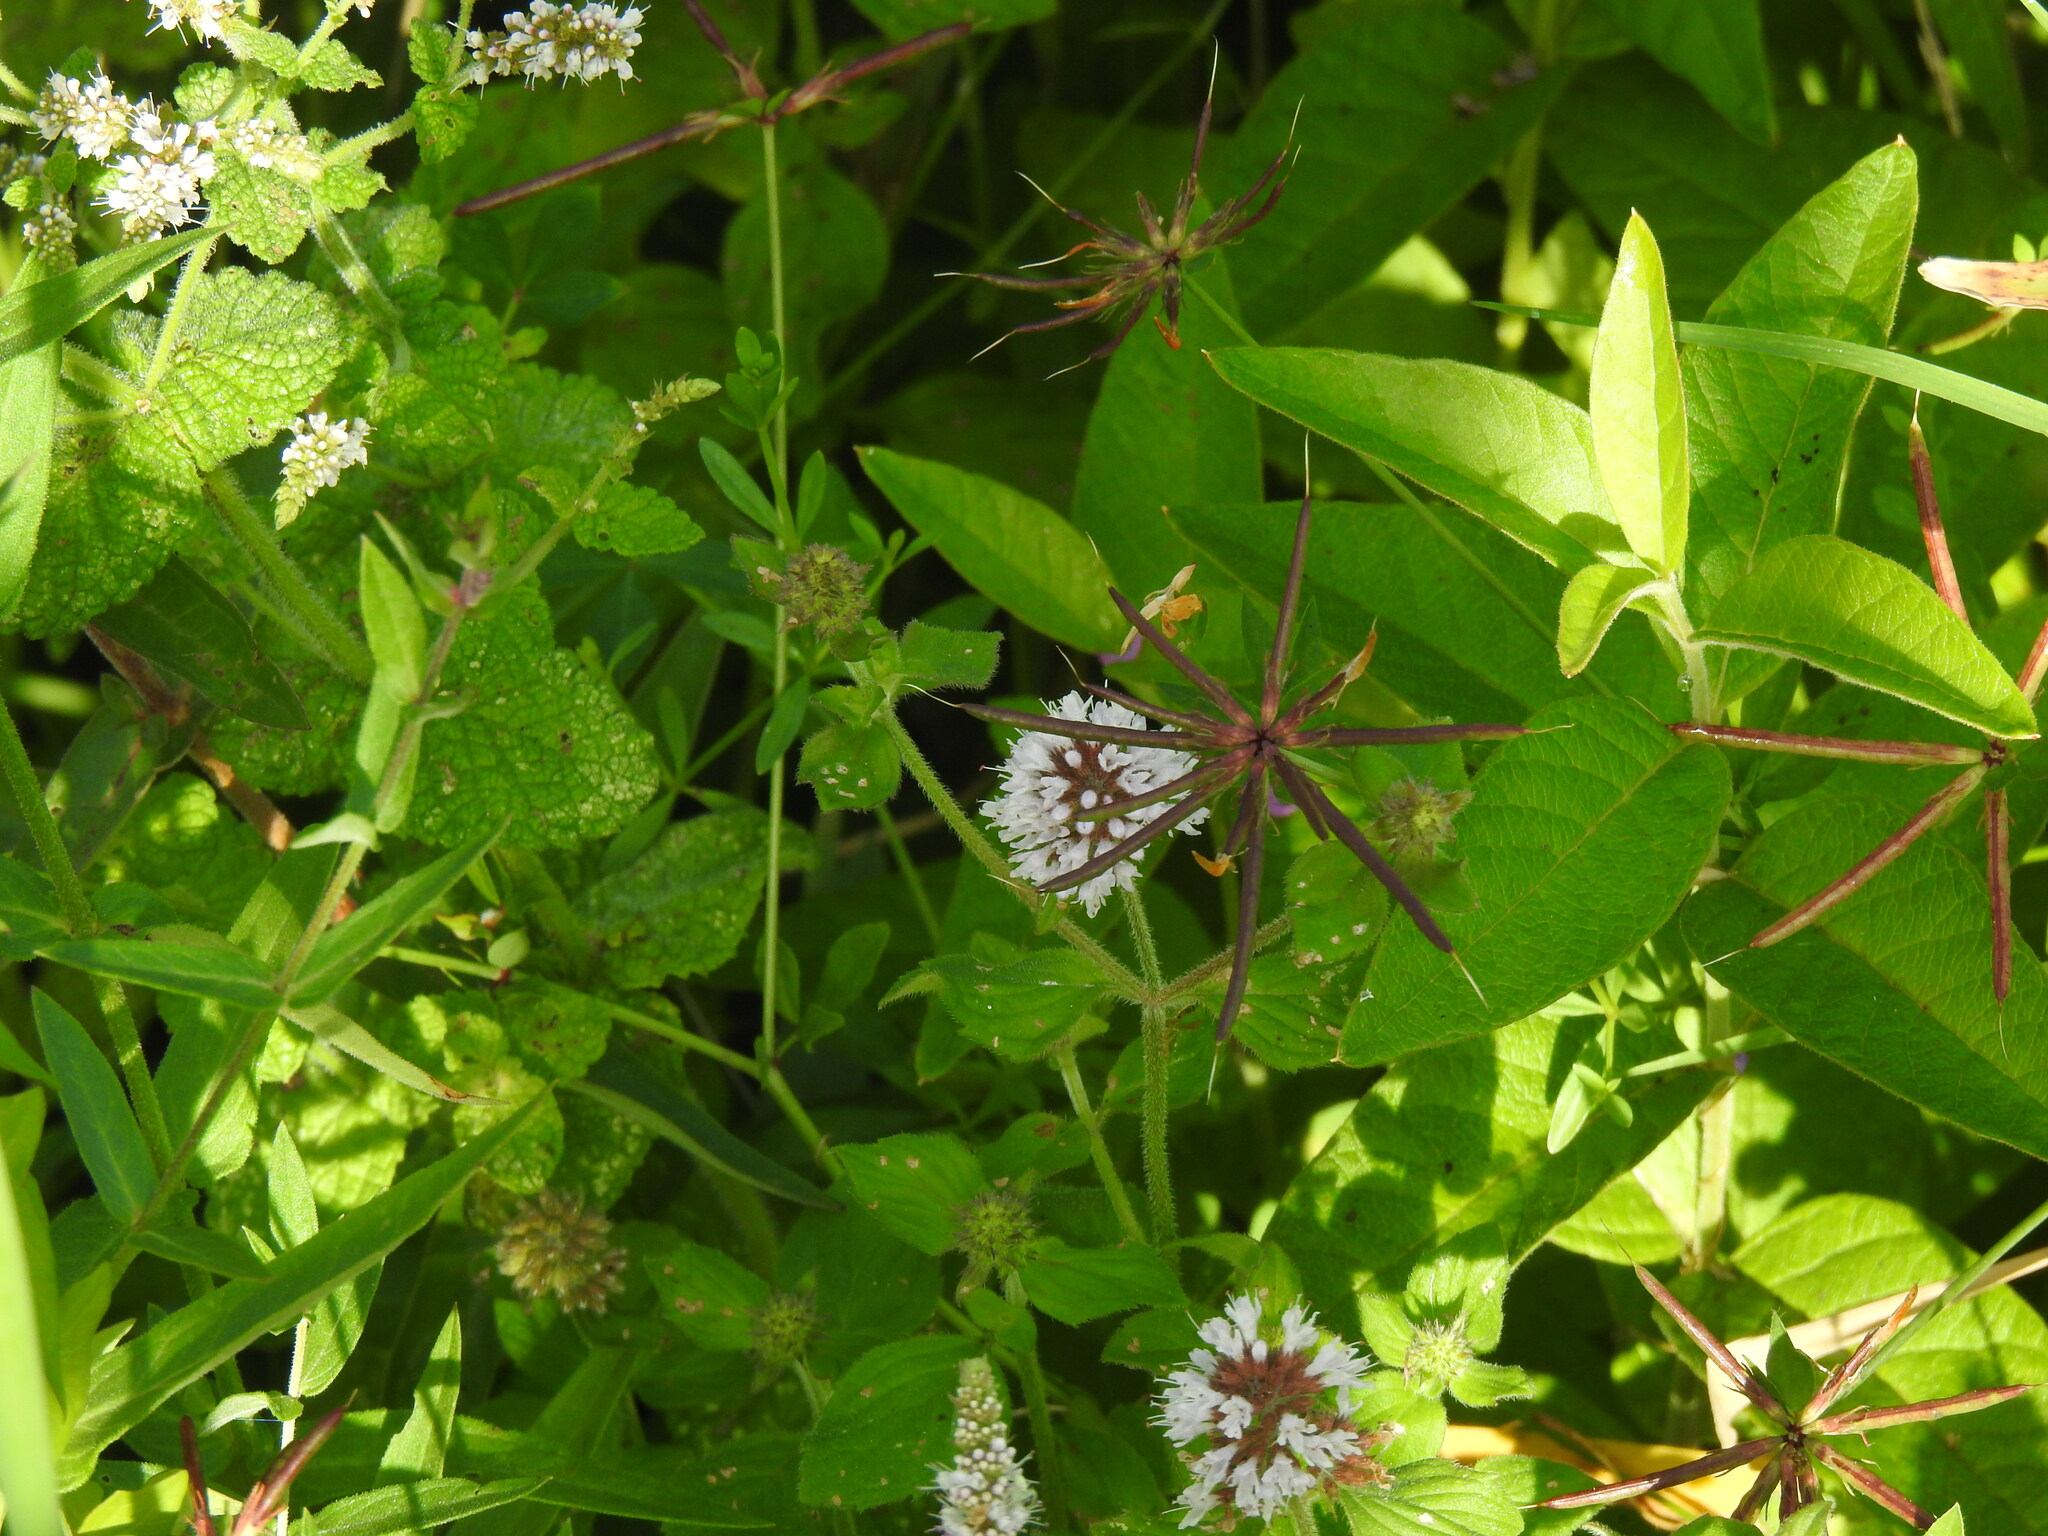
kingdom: Plantae
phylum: Tracheophyta
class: Magnoliopsida
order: Lamiales
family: Lamiaceae
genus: Mentha
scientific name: Mentha aquatica
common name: Water mint
